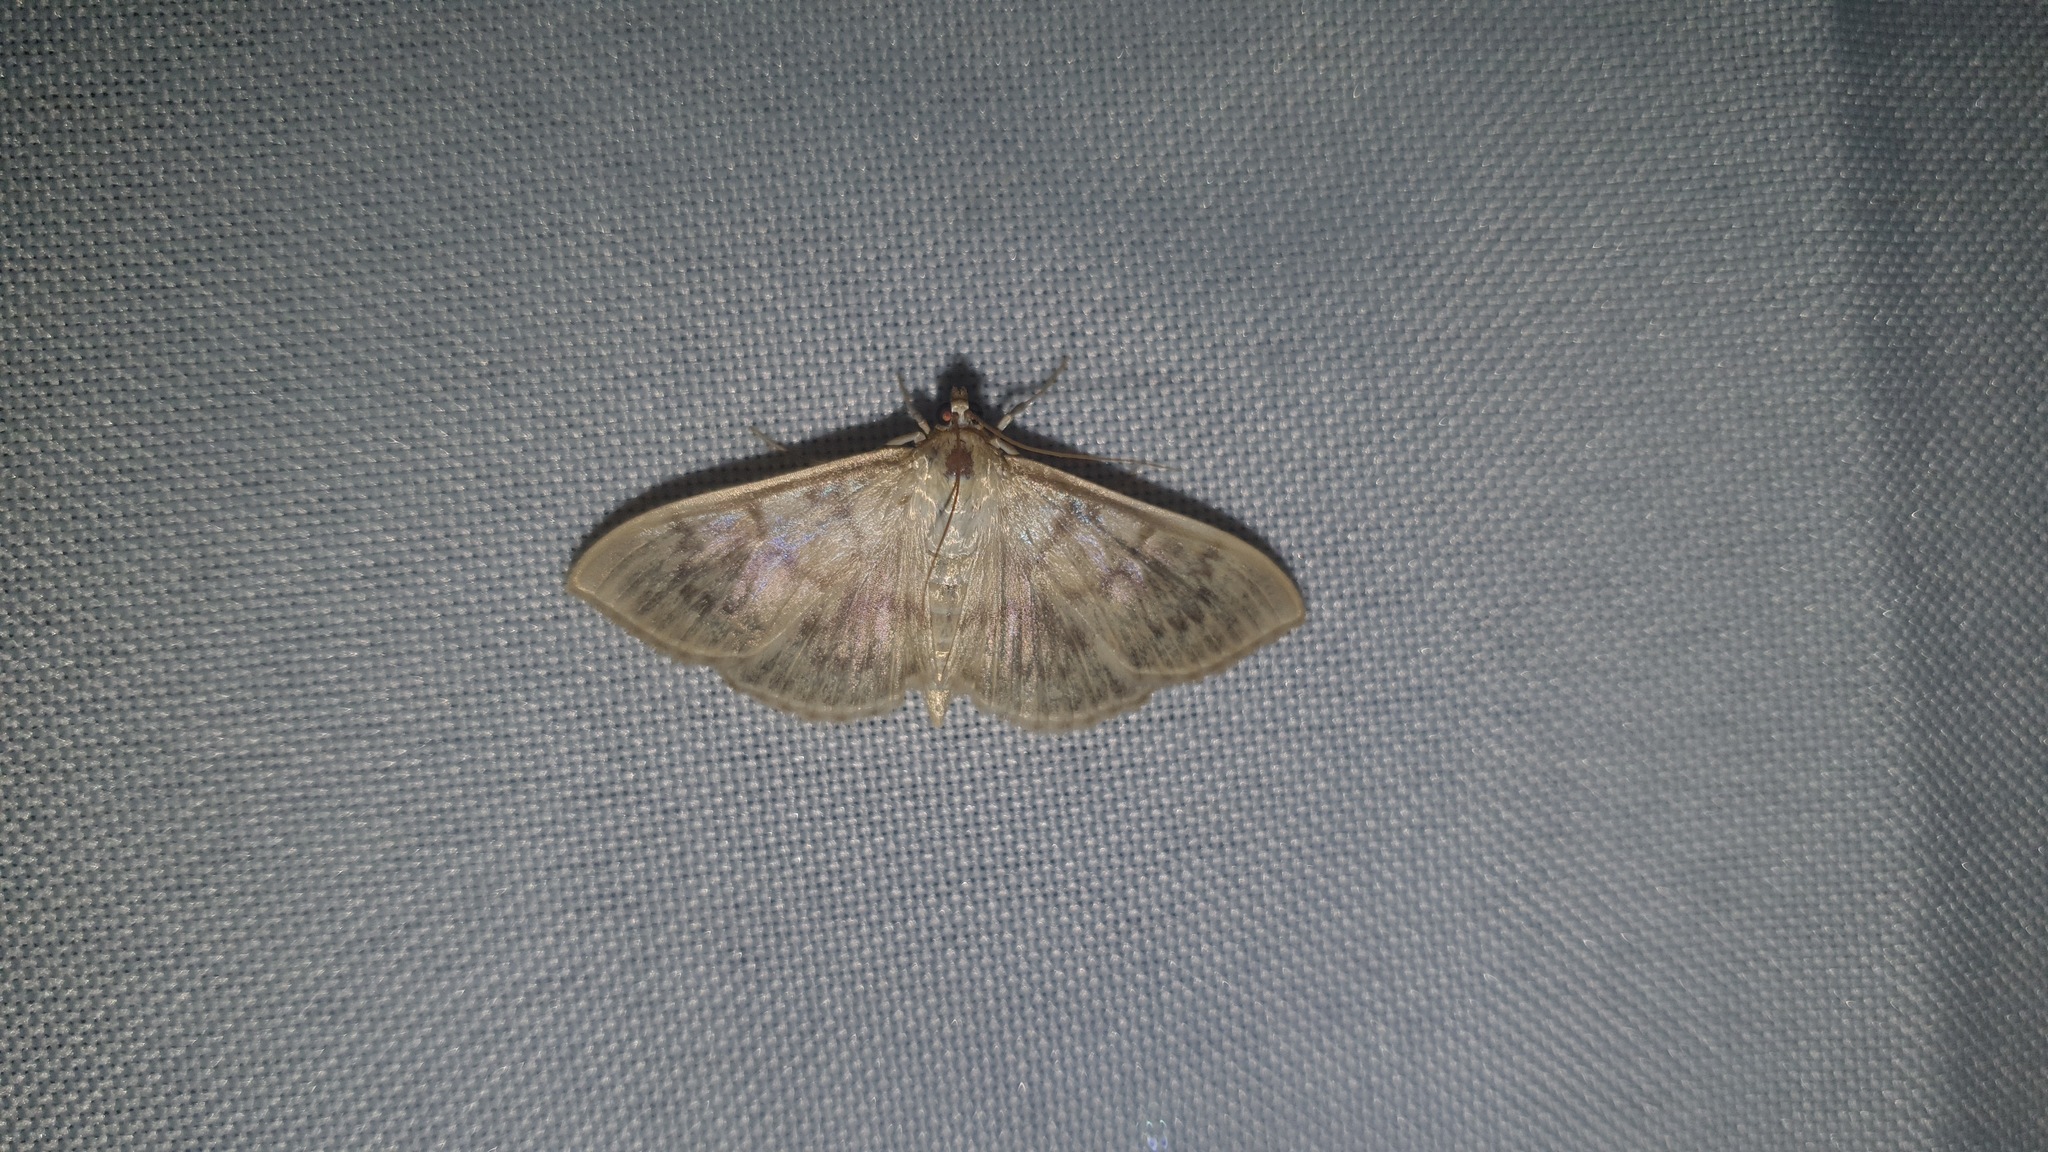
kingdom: Animalia
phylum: Arthropoda
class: Insecta
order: Lepidoptera
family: Crambidae
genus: Patania
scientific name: Patania ruralis
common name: Mother of pearl
